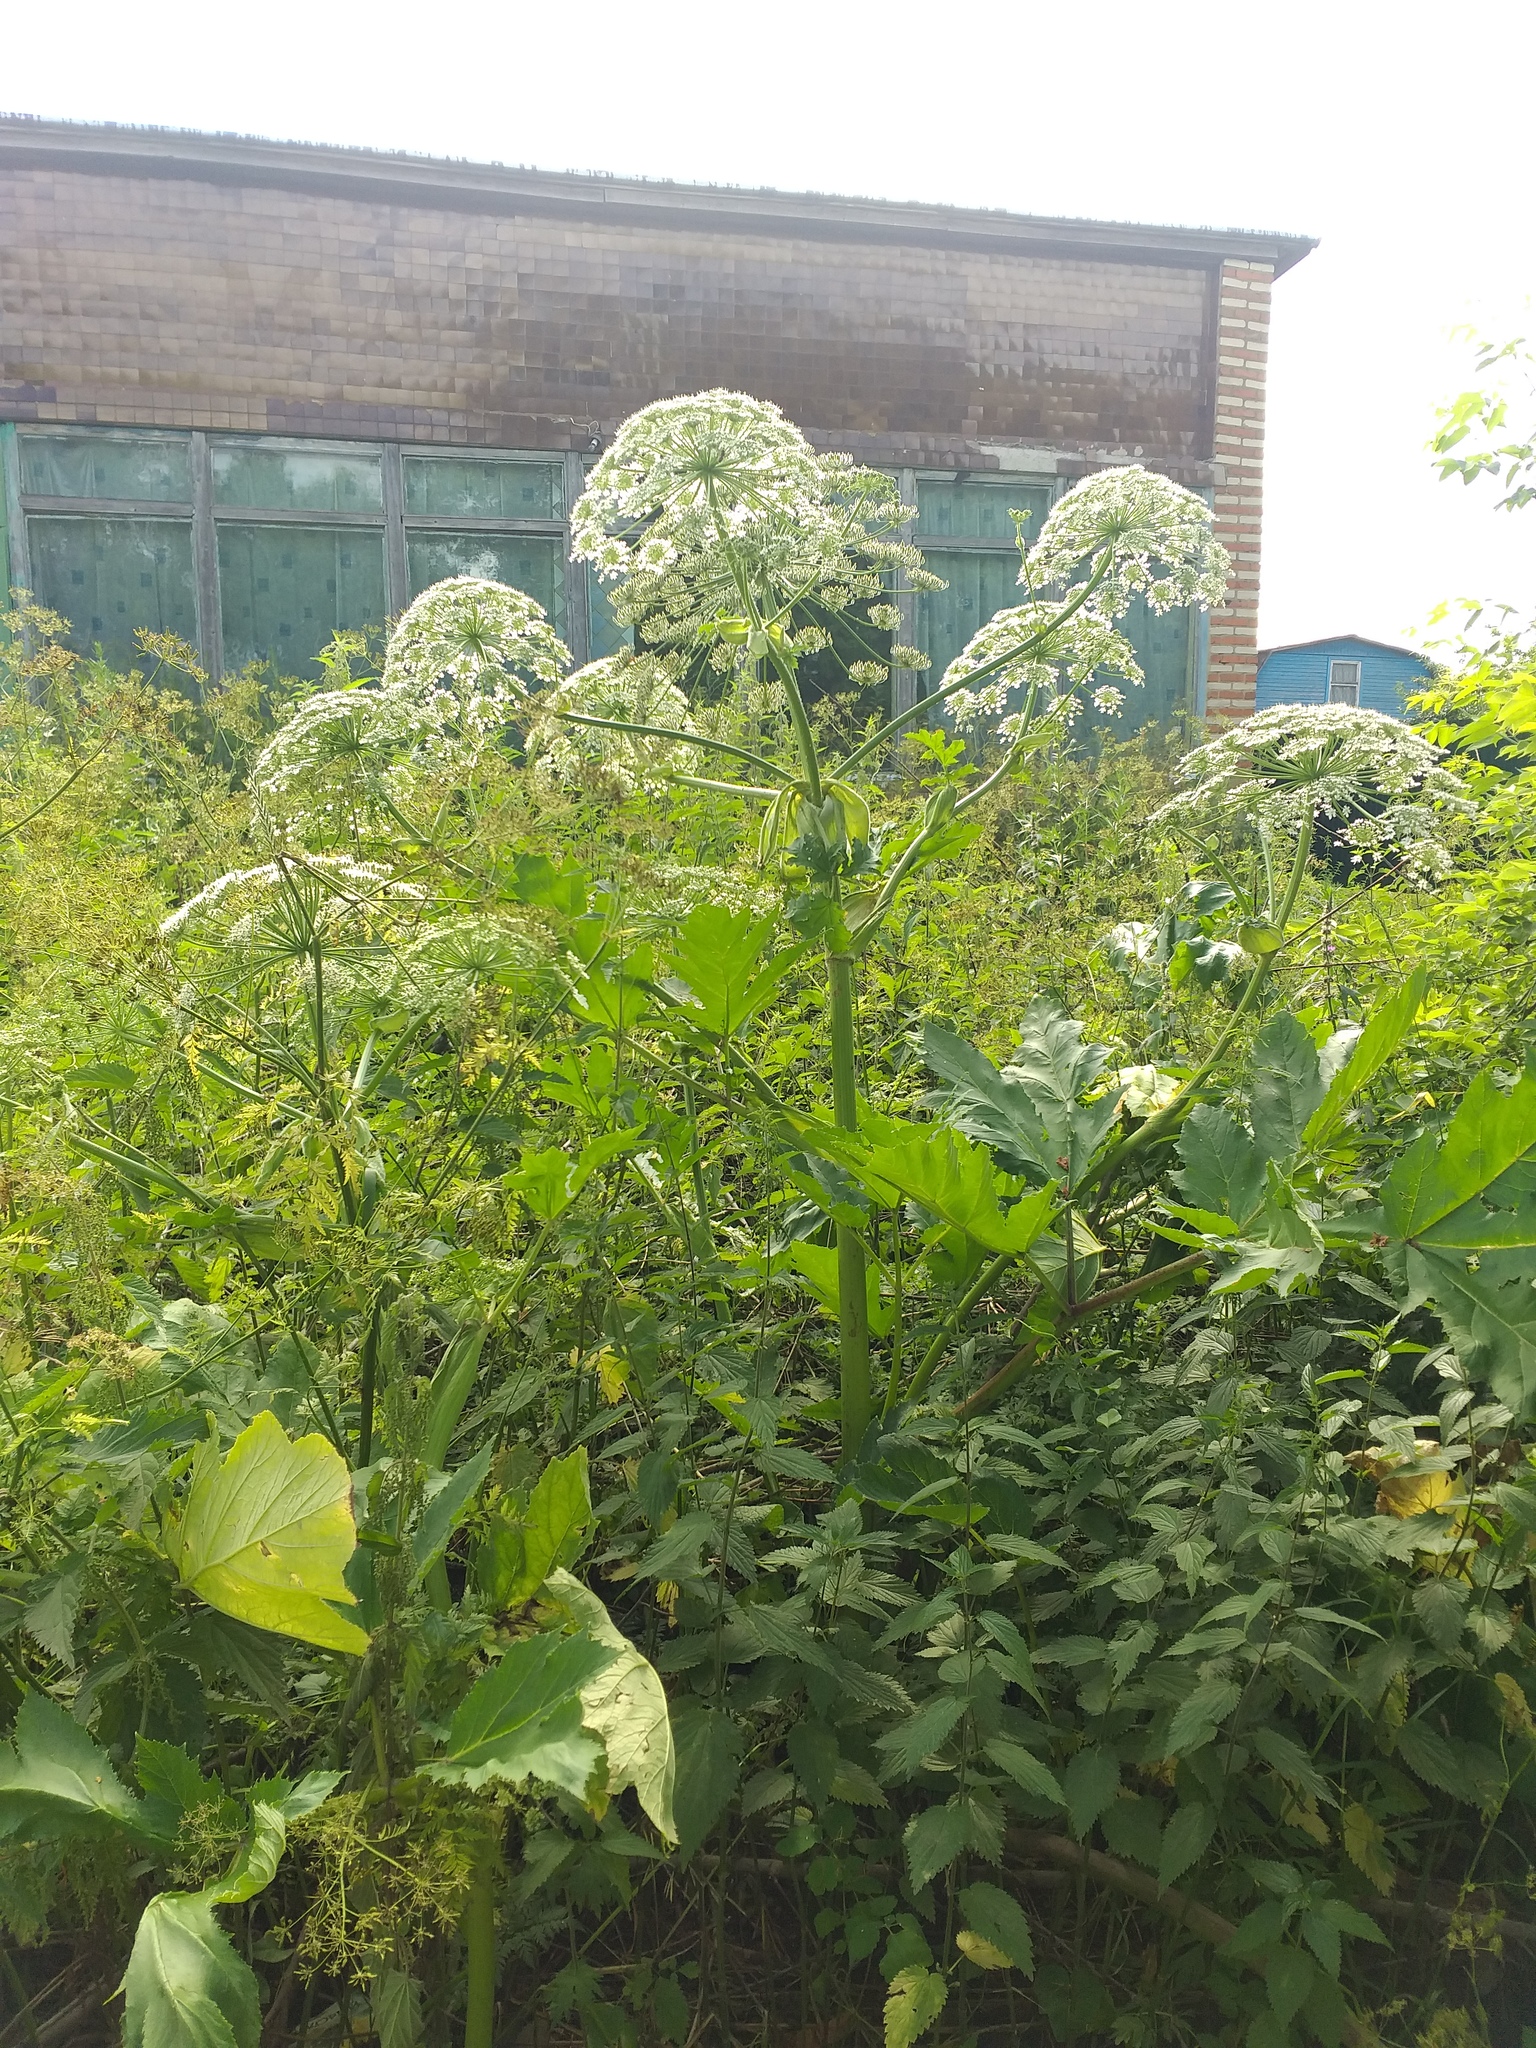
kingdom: Plantae
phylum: Tracheophyta
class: Magnoliopsida
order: Apiales
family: Apiaceae
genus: Heracleum
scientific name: Heracleum sosnowskyi
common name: Sosnowsky's hogweed
